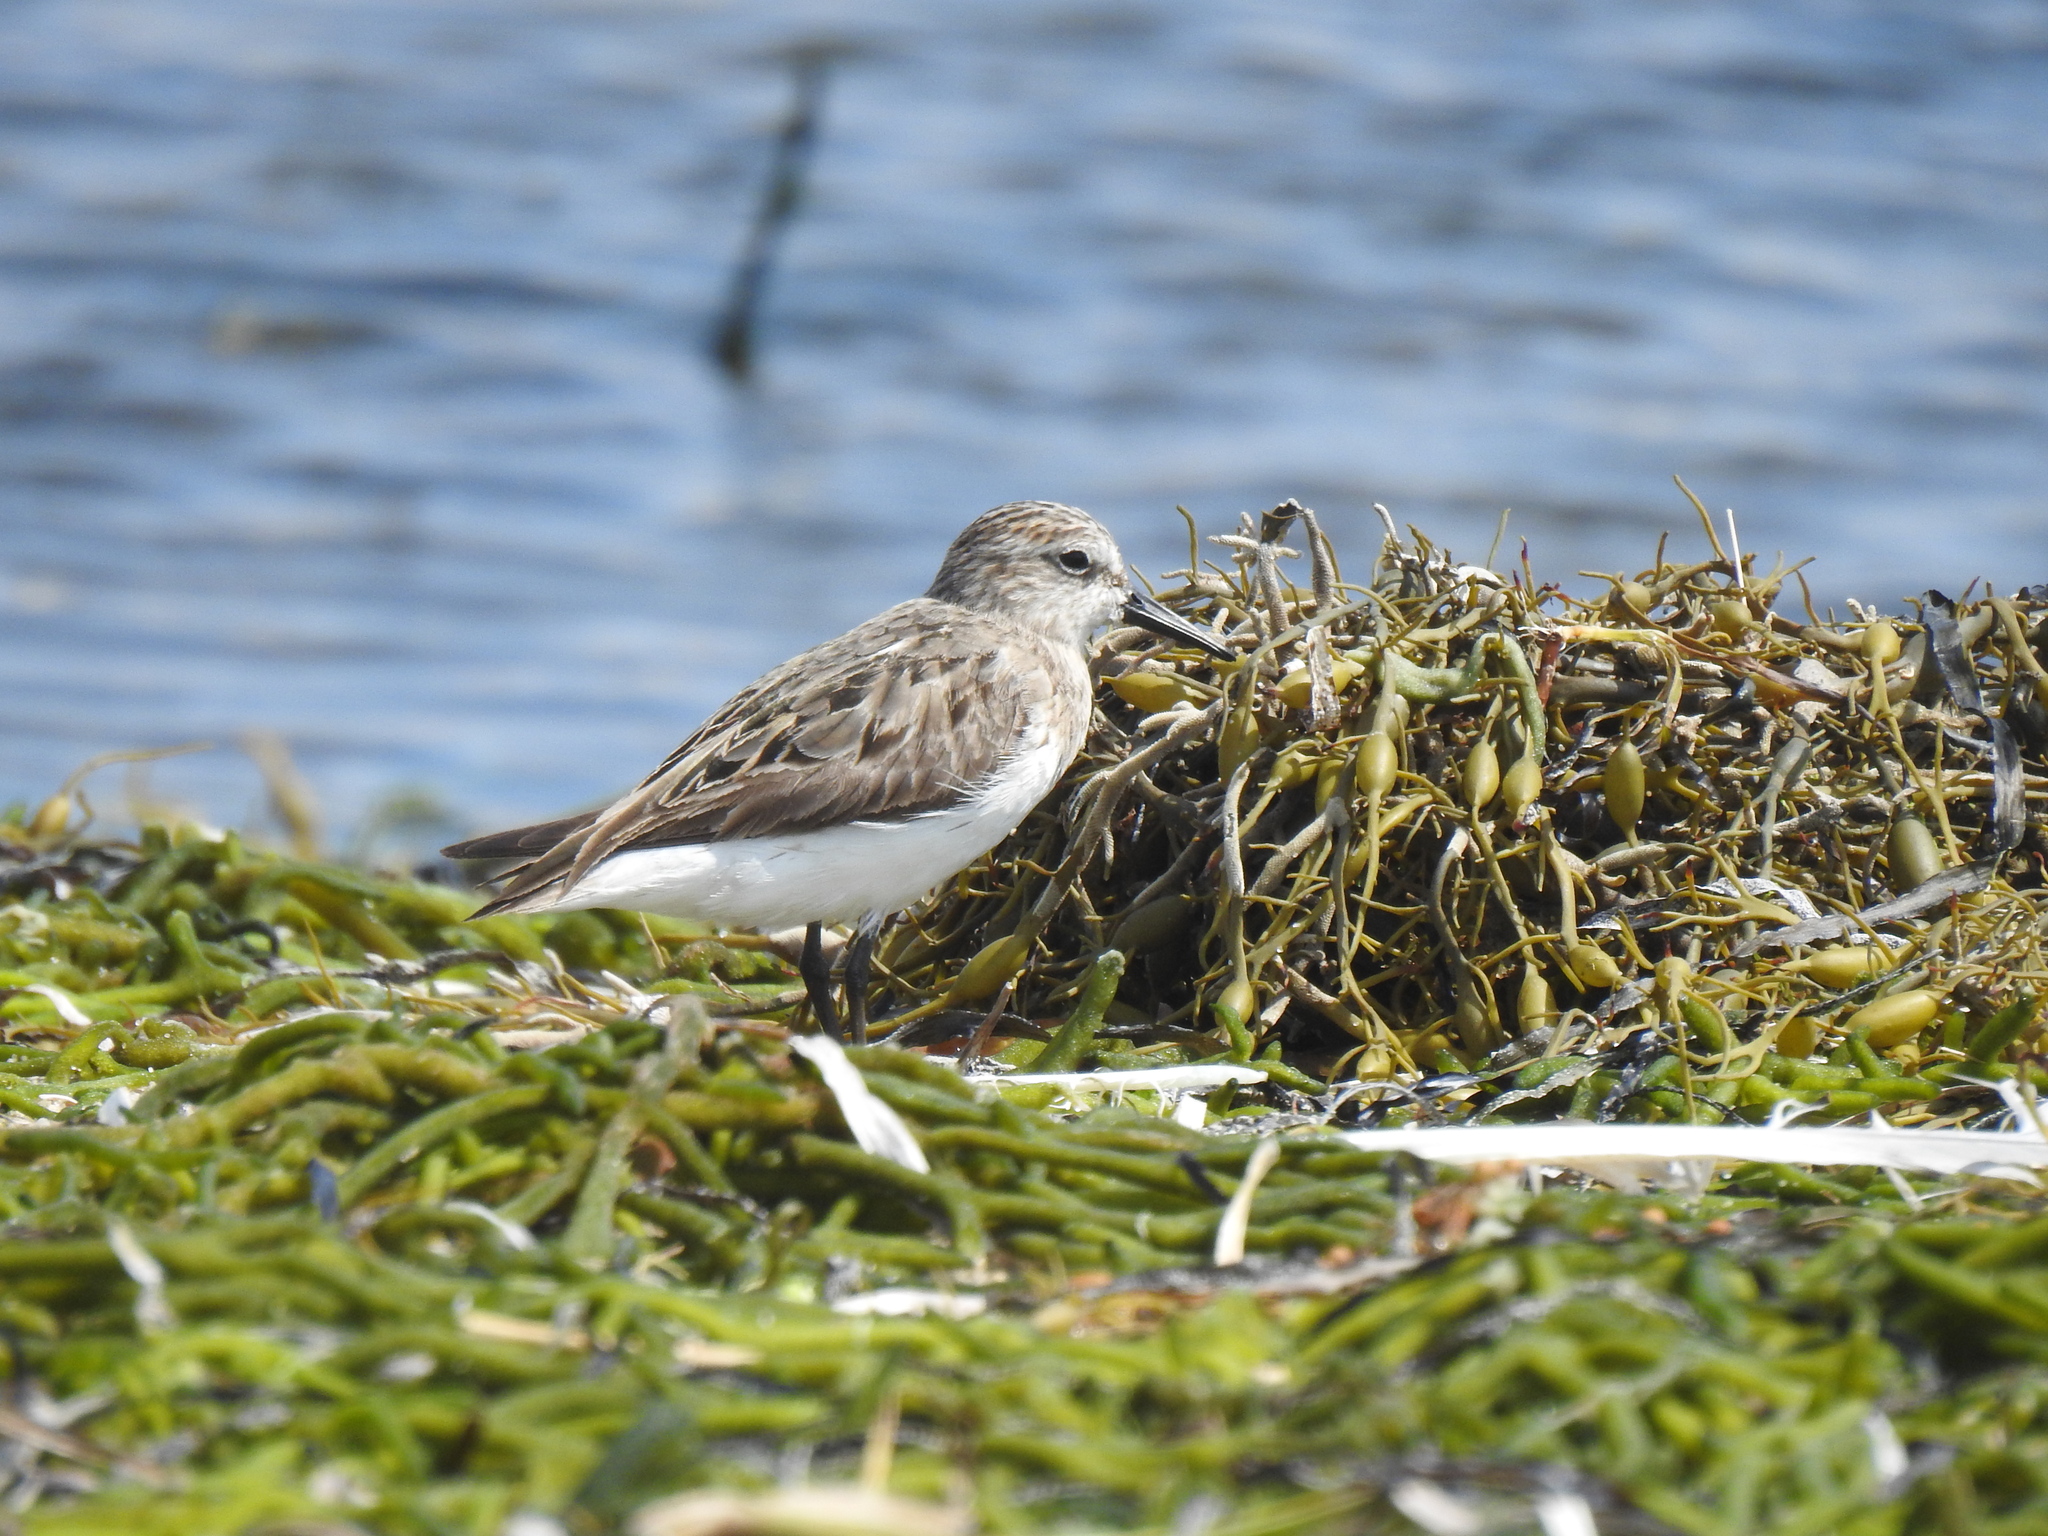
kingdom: Animalia
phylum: Chordata
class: Aves
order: Charadriiformes
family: Scolopacidae
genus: Calidris
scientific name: Calidris pusilla
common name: Semipalmated sandpiper
